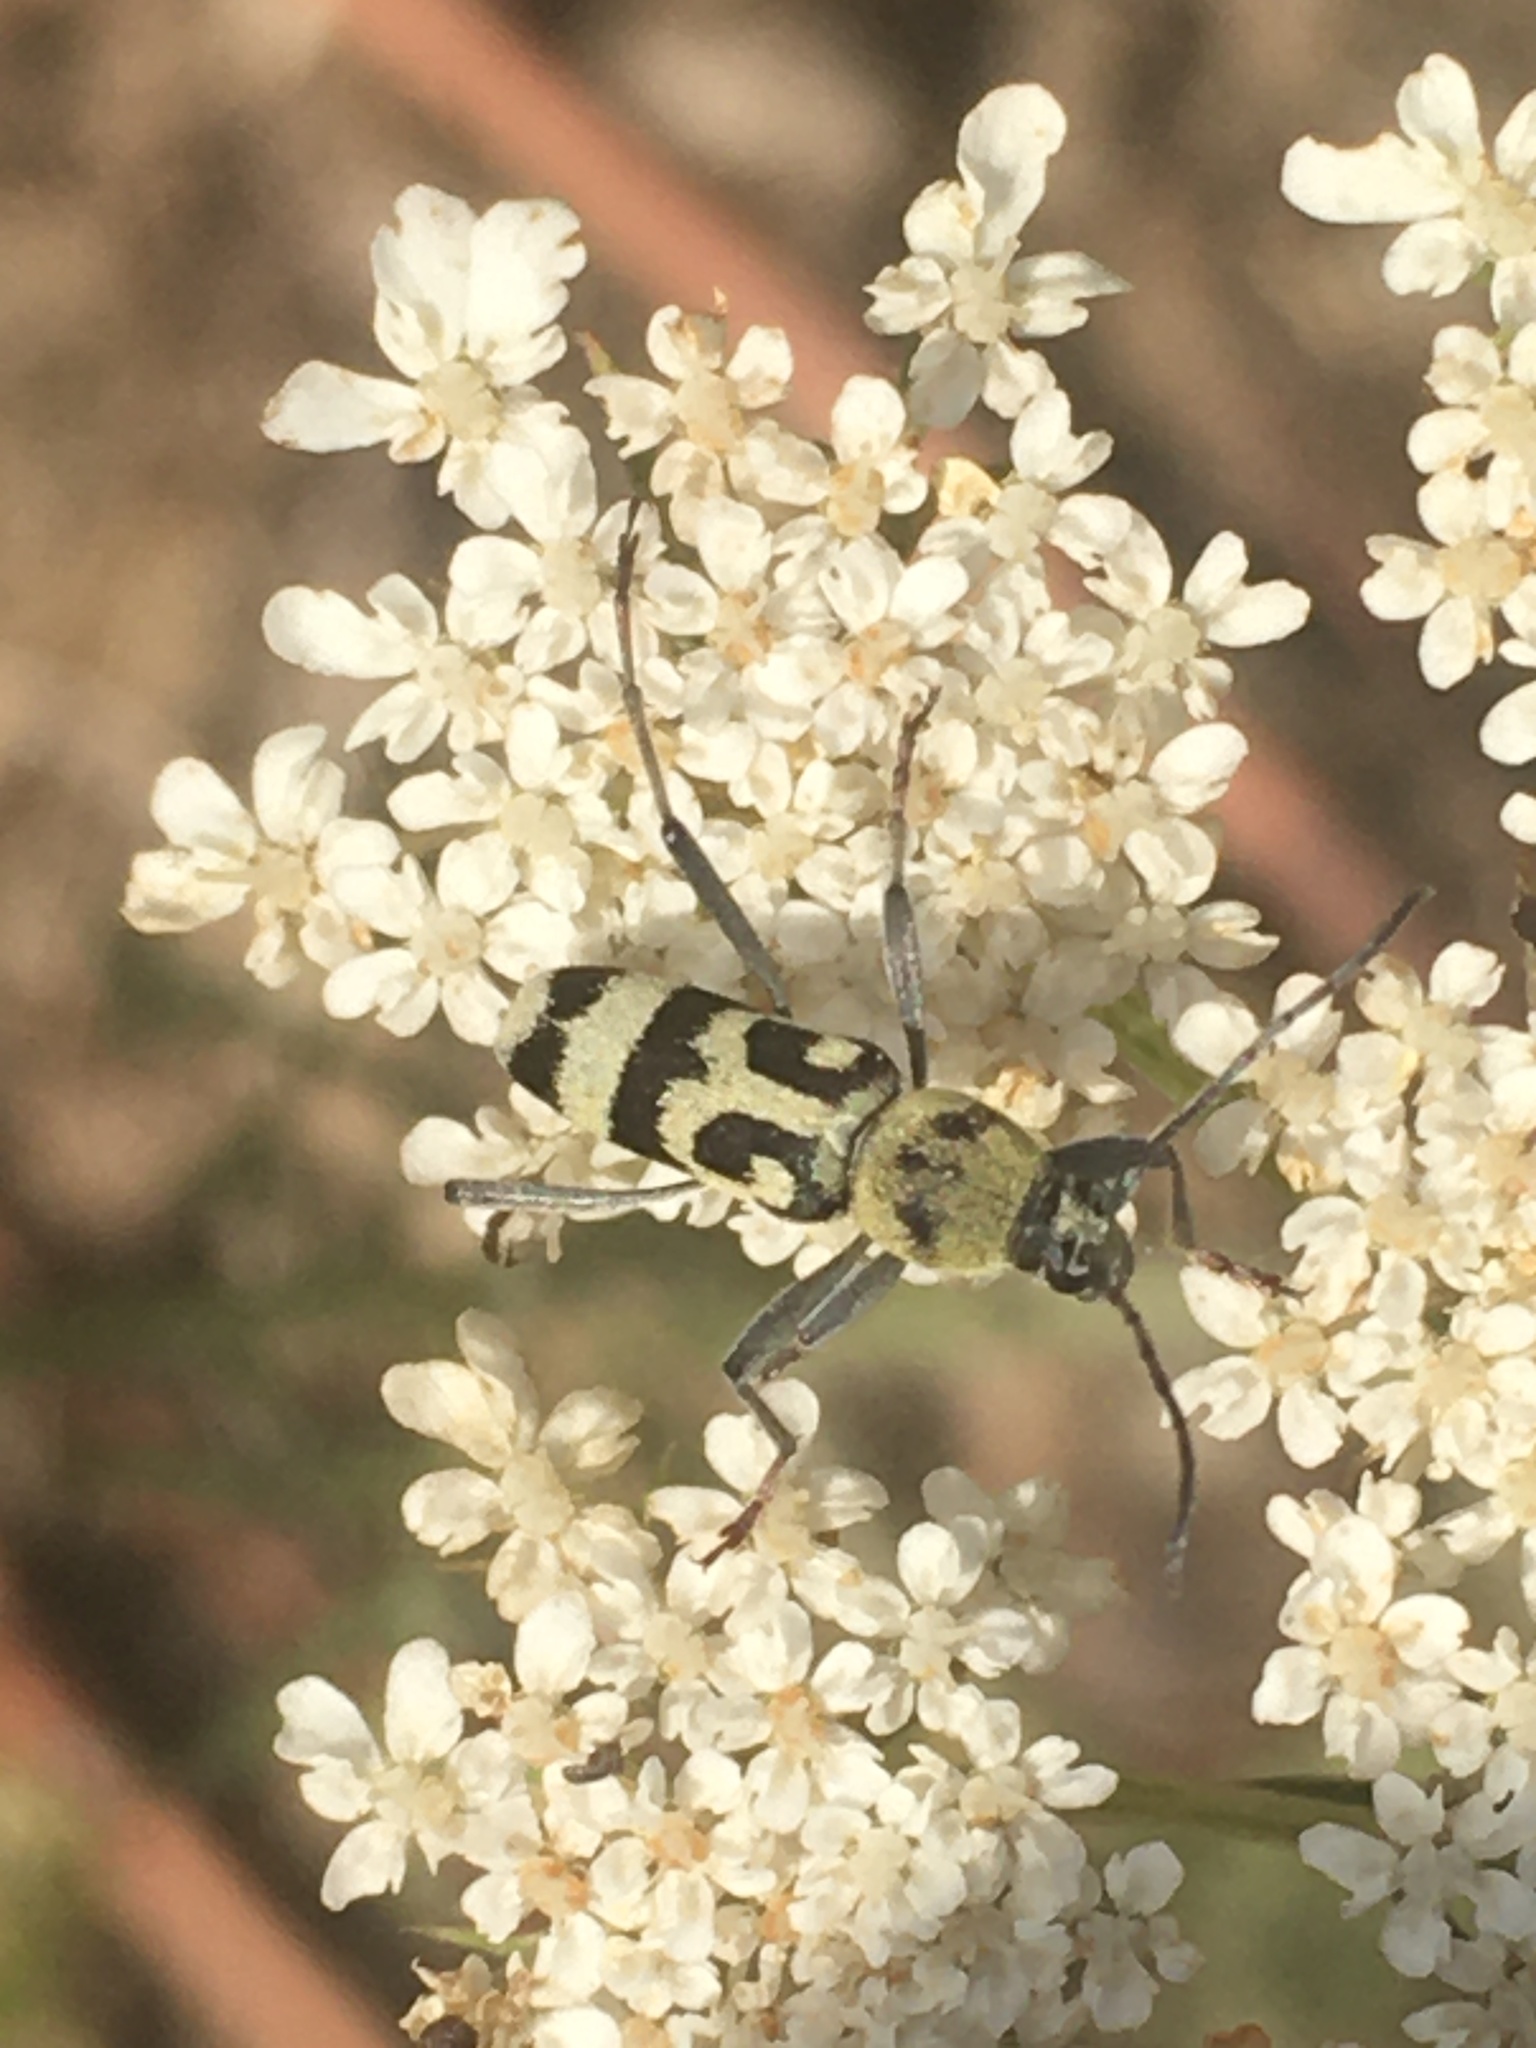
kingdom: Animalia
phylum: Arthropoda
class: Insecta
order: Coleoptera
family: Cerambycidae
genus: Chlorophorus
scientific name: Chlorophorus varius
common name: Grape wood borer
